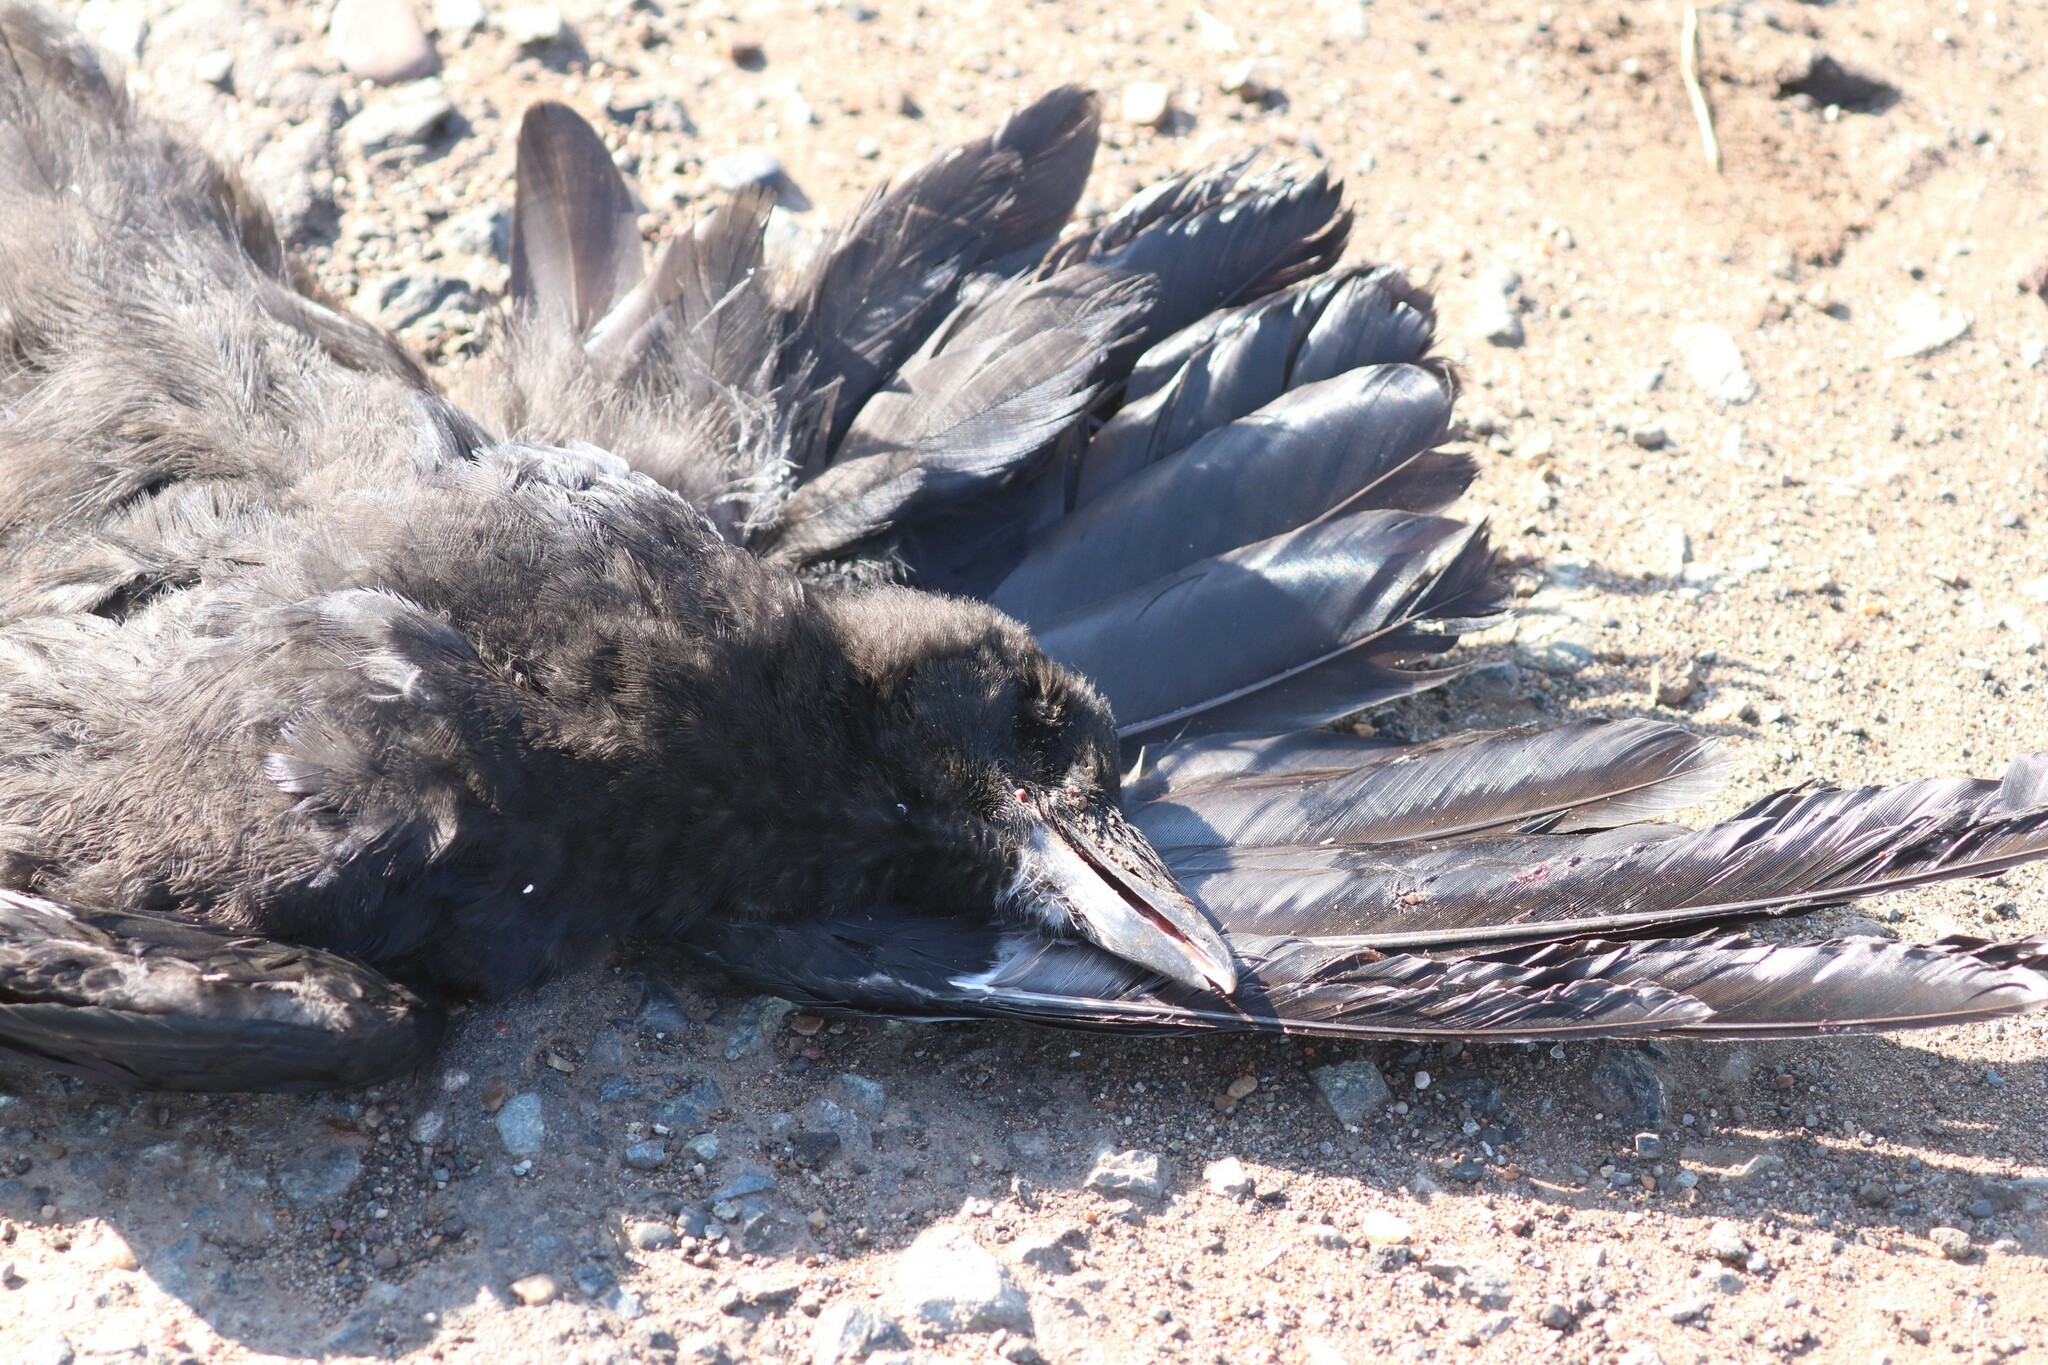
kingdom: Animalia
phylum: Chordata
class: Aves
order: Passeriformes
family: Corvidae
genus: Corvus
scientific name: Corvus frugilegus
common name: Rook
